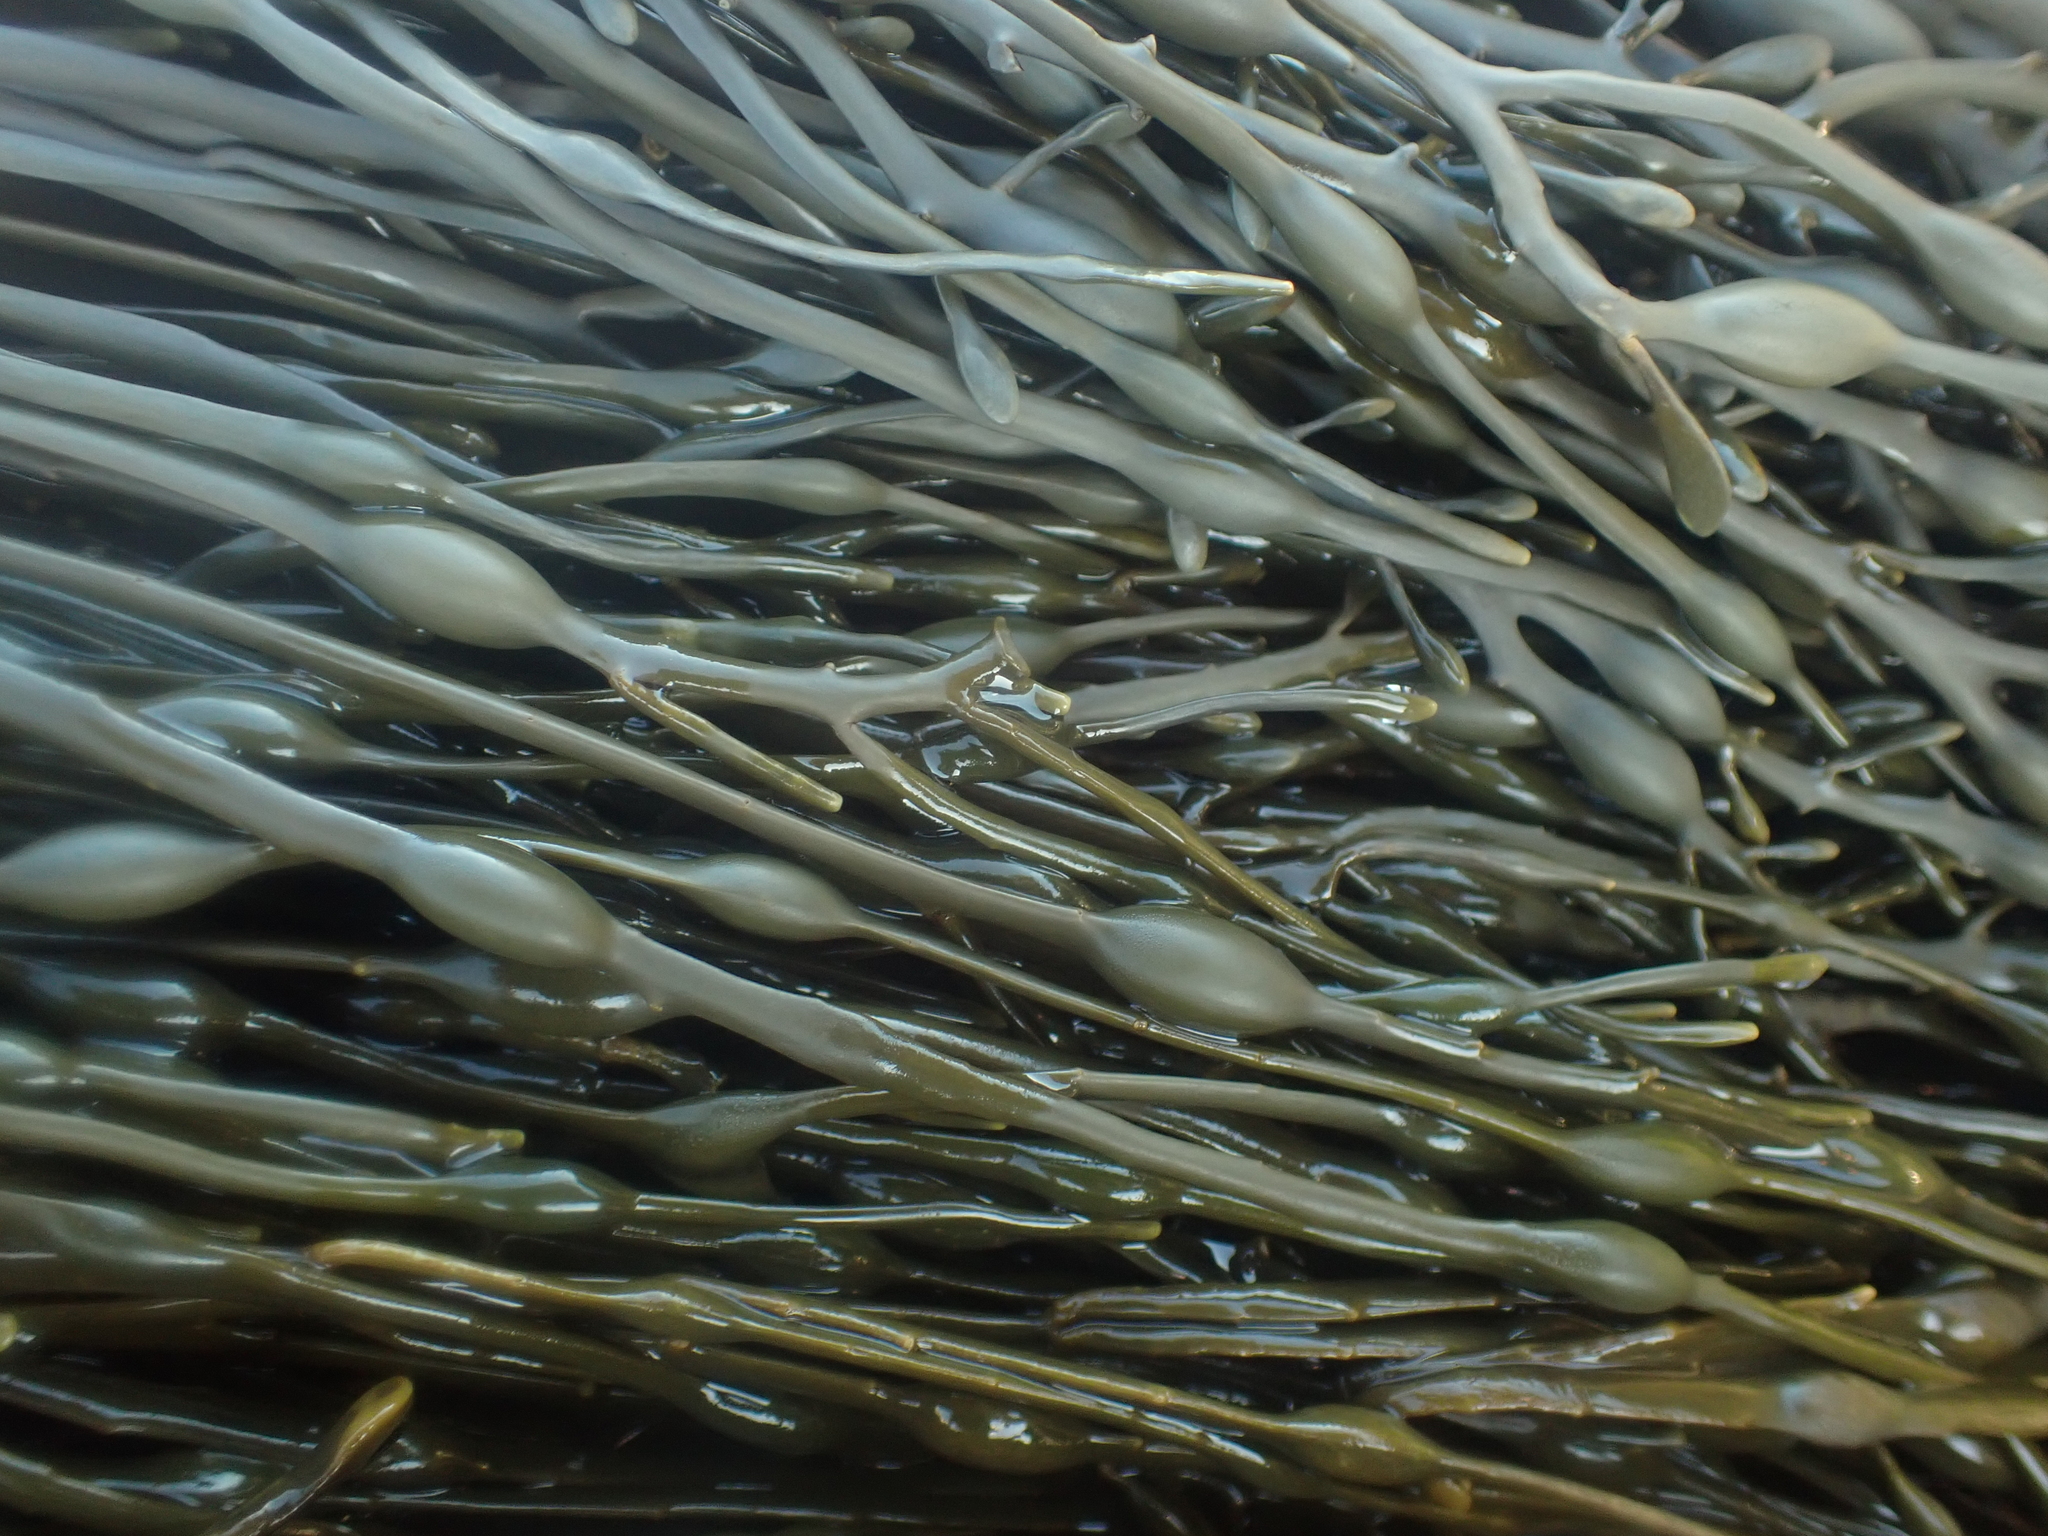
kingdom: Chromista
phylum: Ochrophyta
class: Phaeophyceae
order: Fucales
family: Fucaceae
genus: Ascophyllum
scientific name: Ascophyllum nodosum
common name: Knotted wrack
